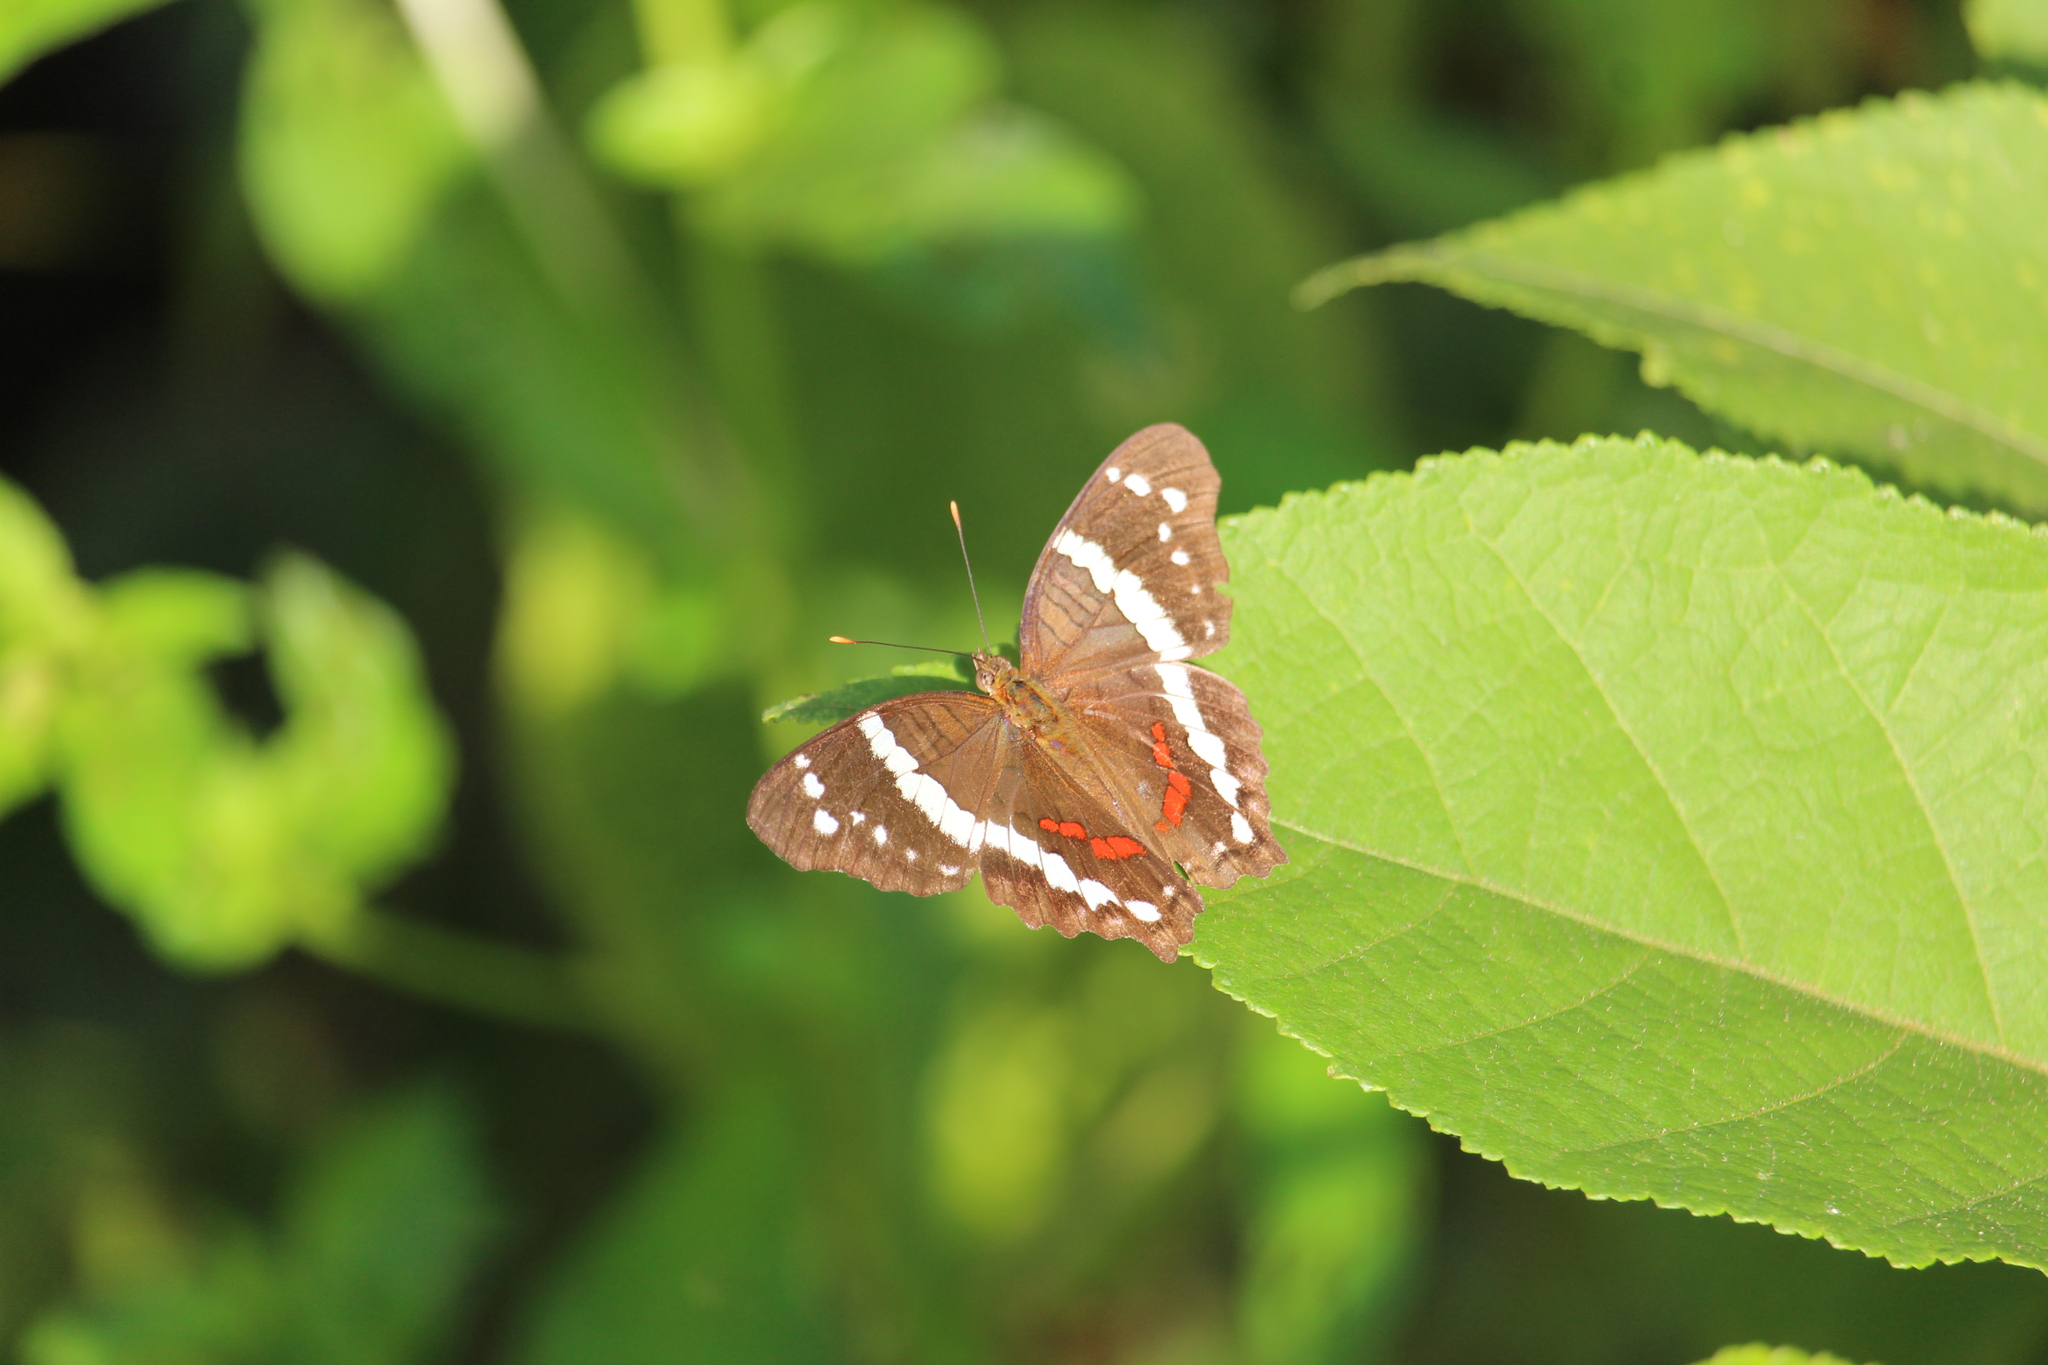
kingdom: Animalia
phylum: Arthropoda
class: Insecta
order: Lepidoptera
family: Nymphalidae
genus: Anartia
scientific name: Anartia fatima
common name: Banded peacock
